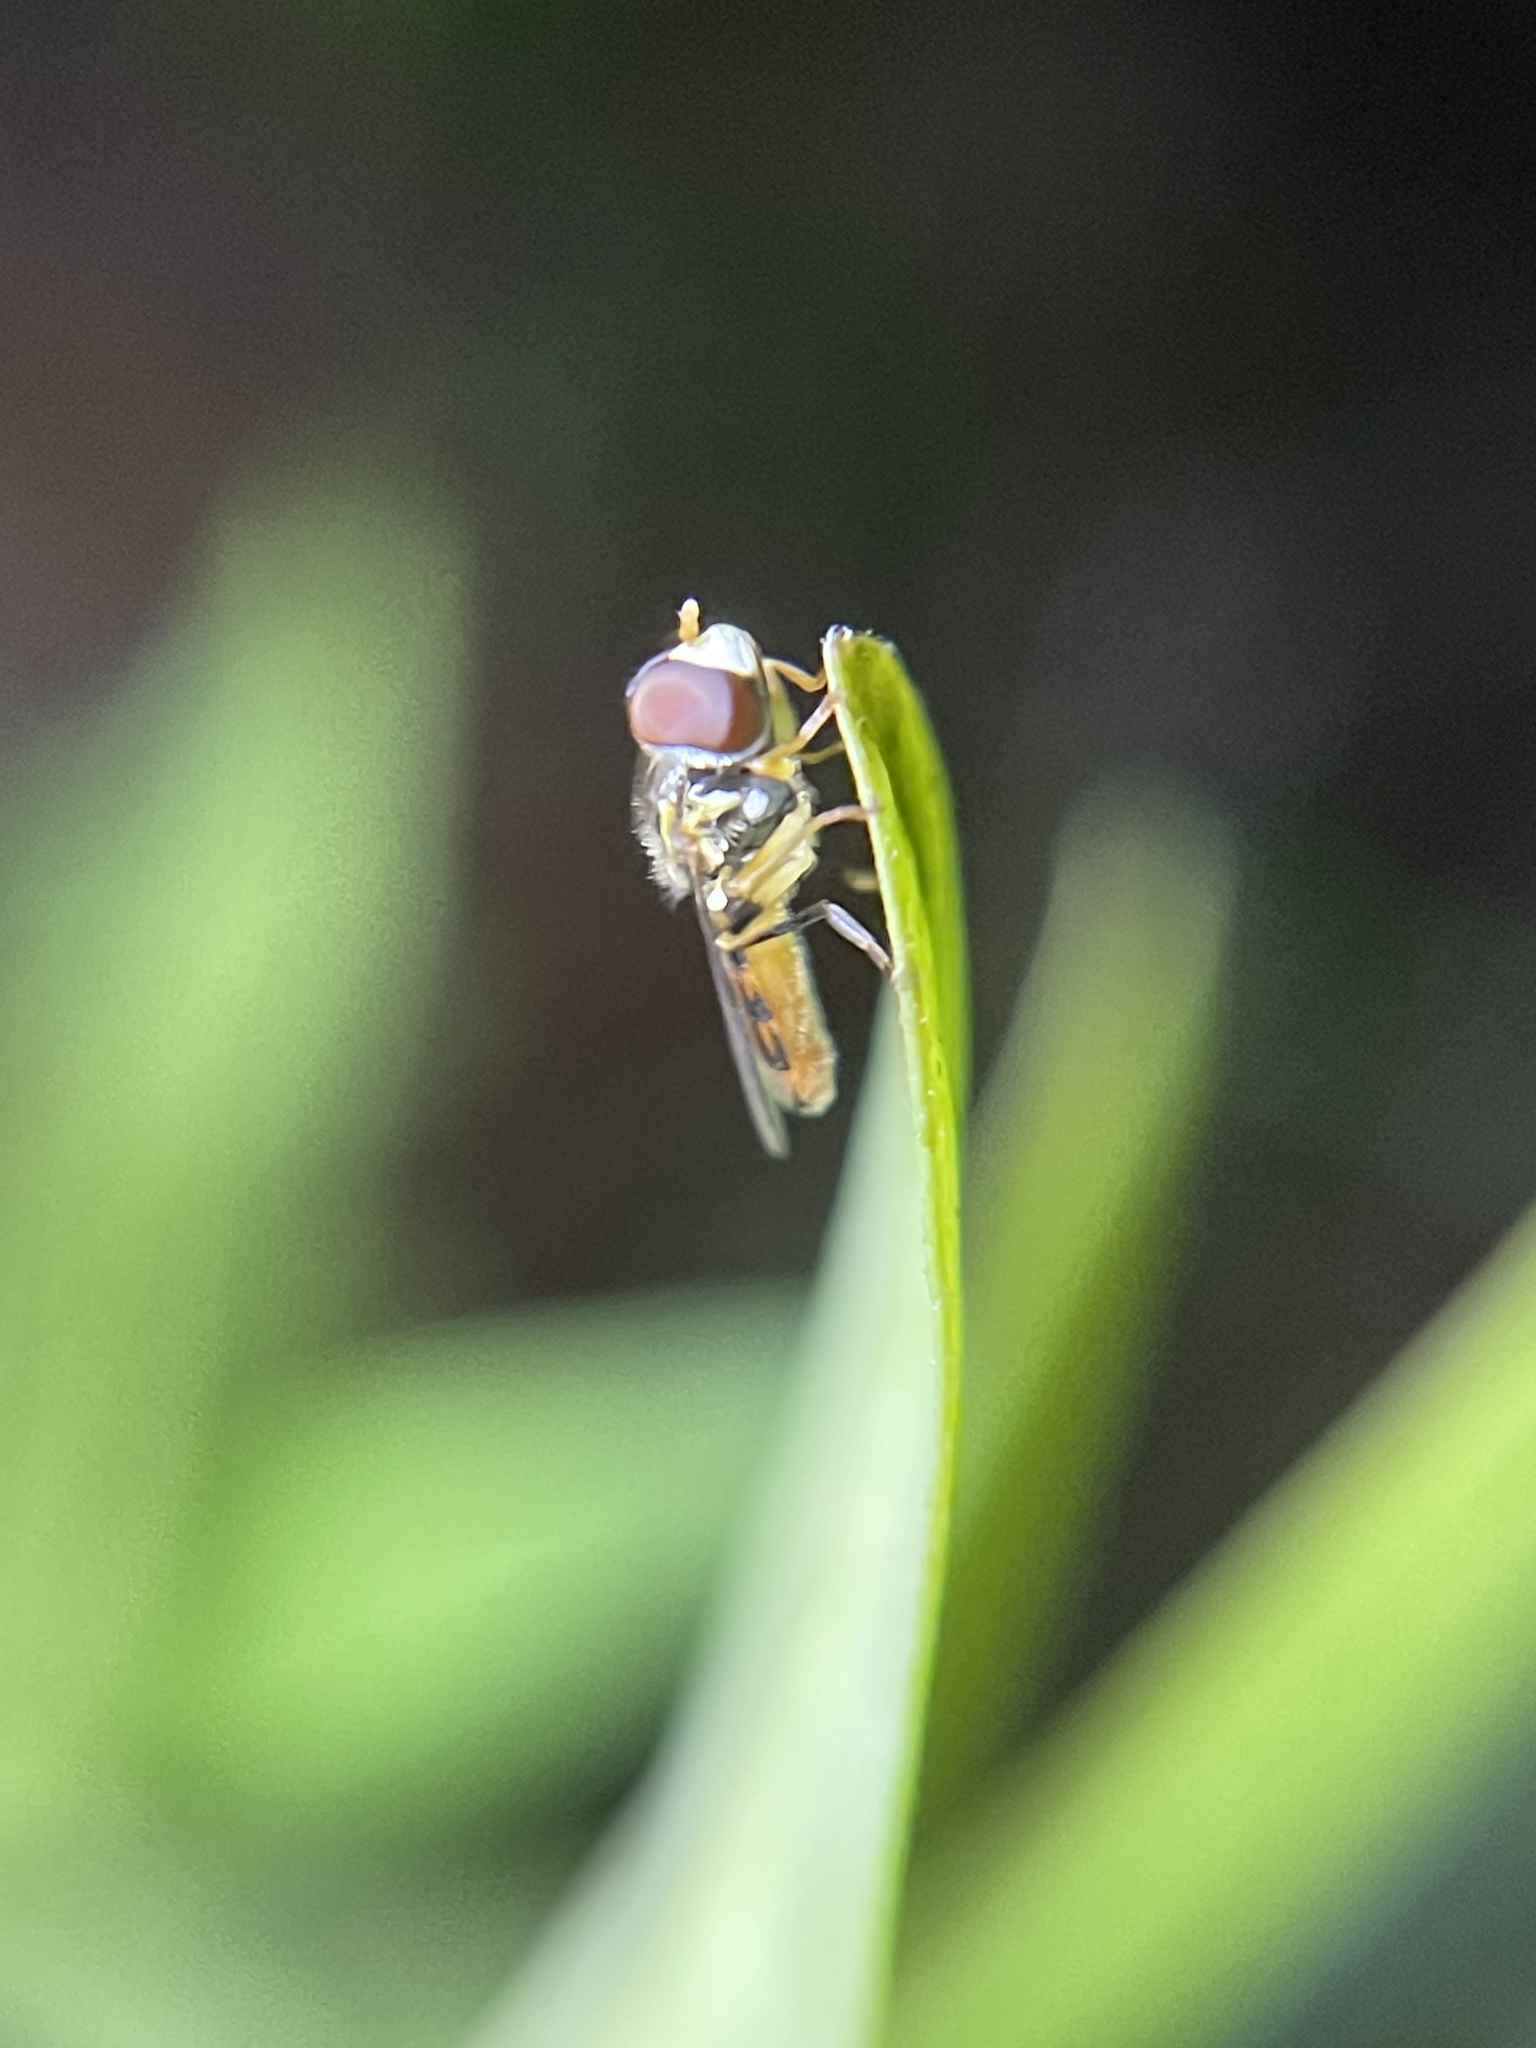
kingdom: Animalia
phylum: Arthropoda
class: Insecta
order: Diptera
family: Syrphidae
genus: Toxomerus
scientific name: Toxomerus boscii
